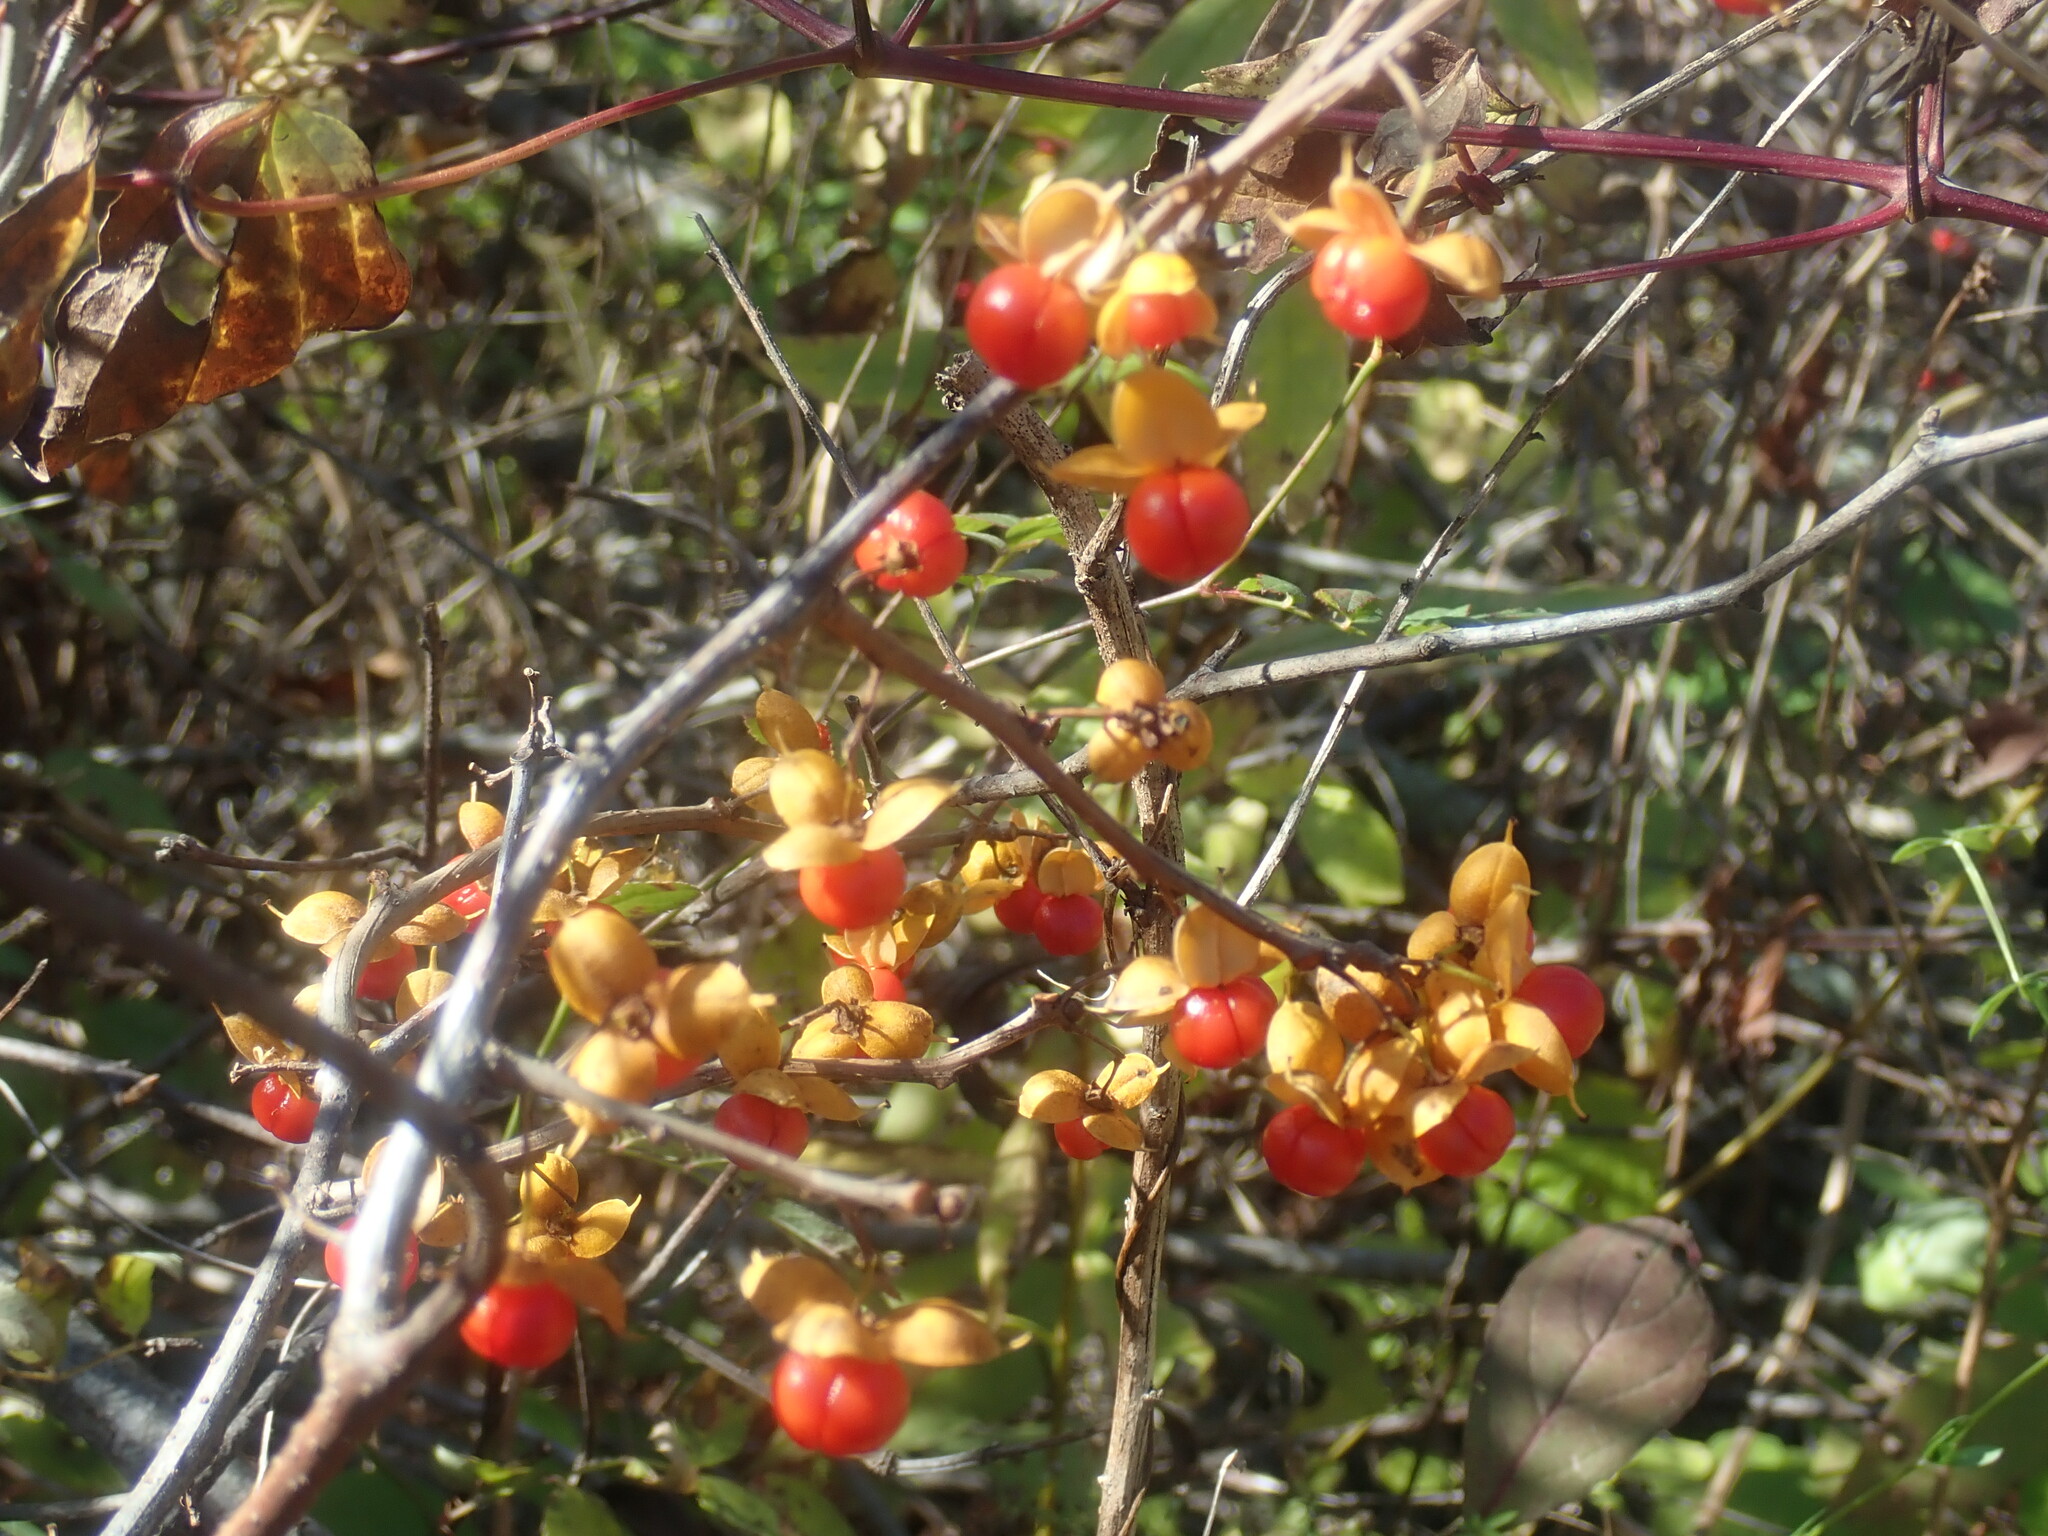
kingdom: Plantae
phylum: Tracheophyta
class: Magnoliopsida
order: Celastrales
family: Celastraceae
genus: Celastrus
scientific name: Celastrus orbiculatus
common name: Oriental bittersweet
